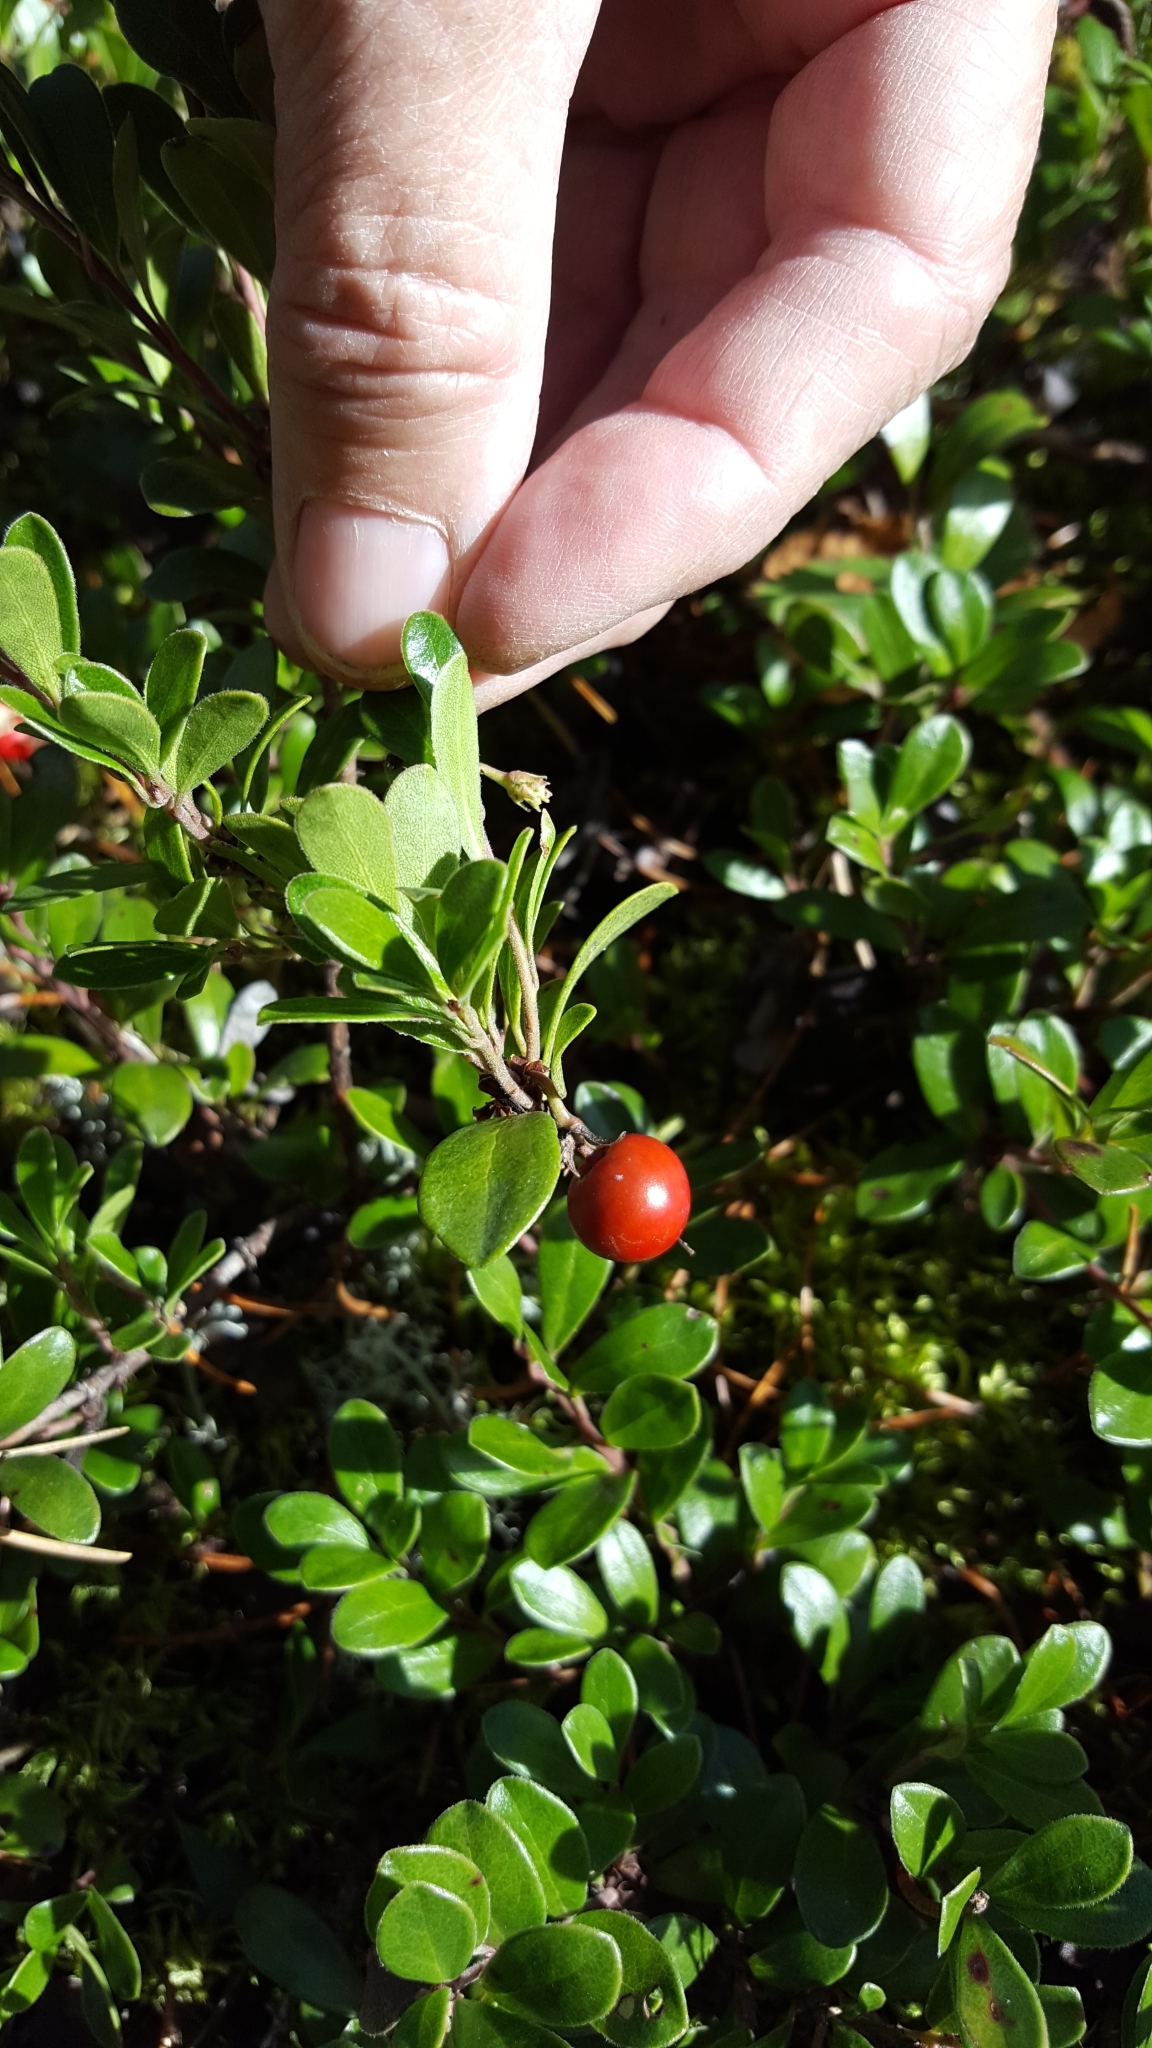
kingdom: Plantae
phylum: Tracheophyta
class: Magnoliopsida
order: Ericales
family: Ericaceae
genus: Arctostaphylos
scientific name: Arctostaphylos uva-ursi
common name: Bearberry
